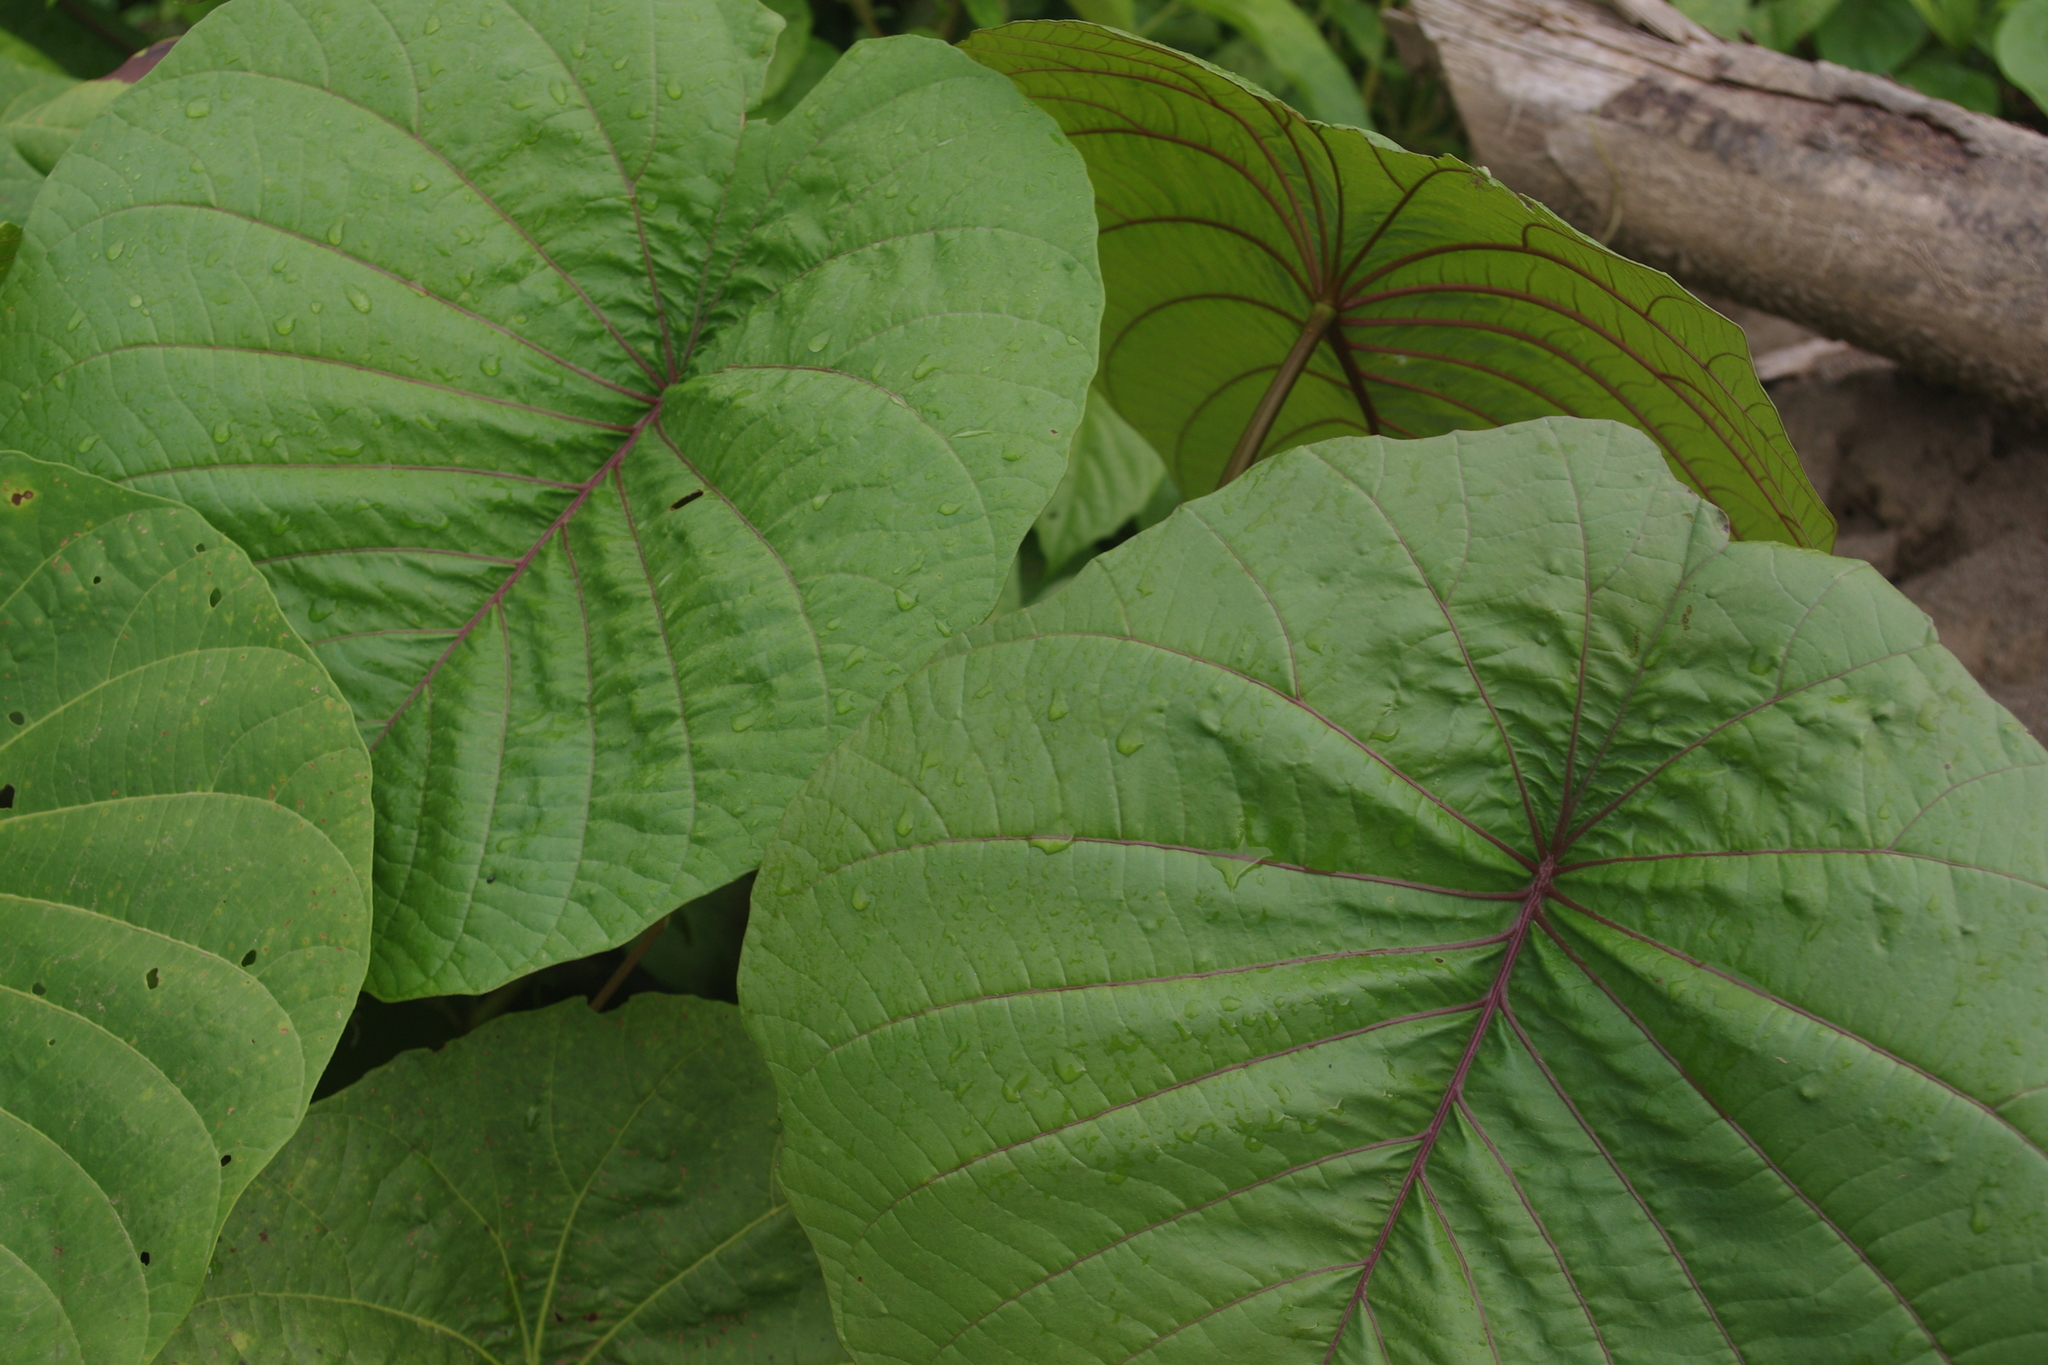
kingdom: Plantae
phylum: Tracheophyta
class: Magnoliopsida
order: Solanales
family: Convolvulaceae
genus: Decalobanthus
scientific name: Decalobanthus peltatus
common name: Merremia
